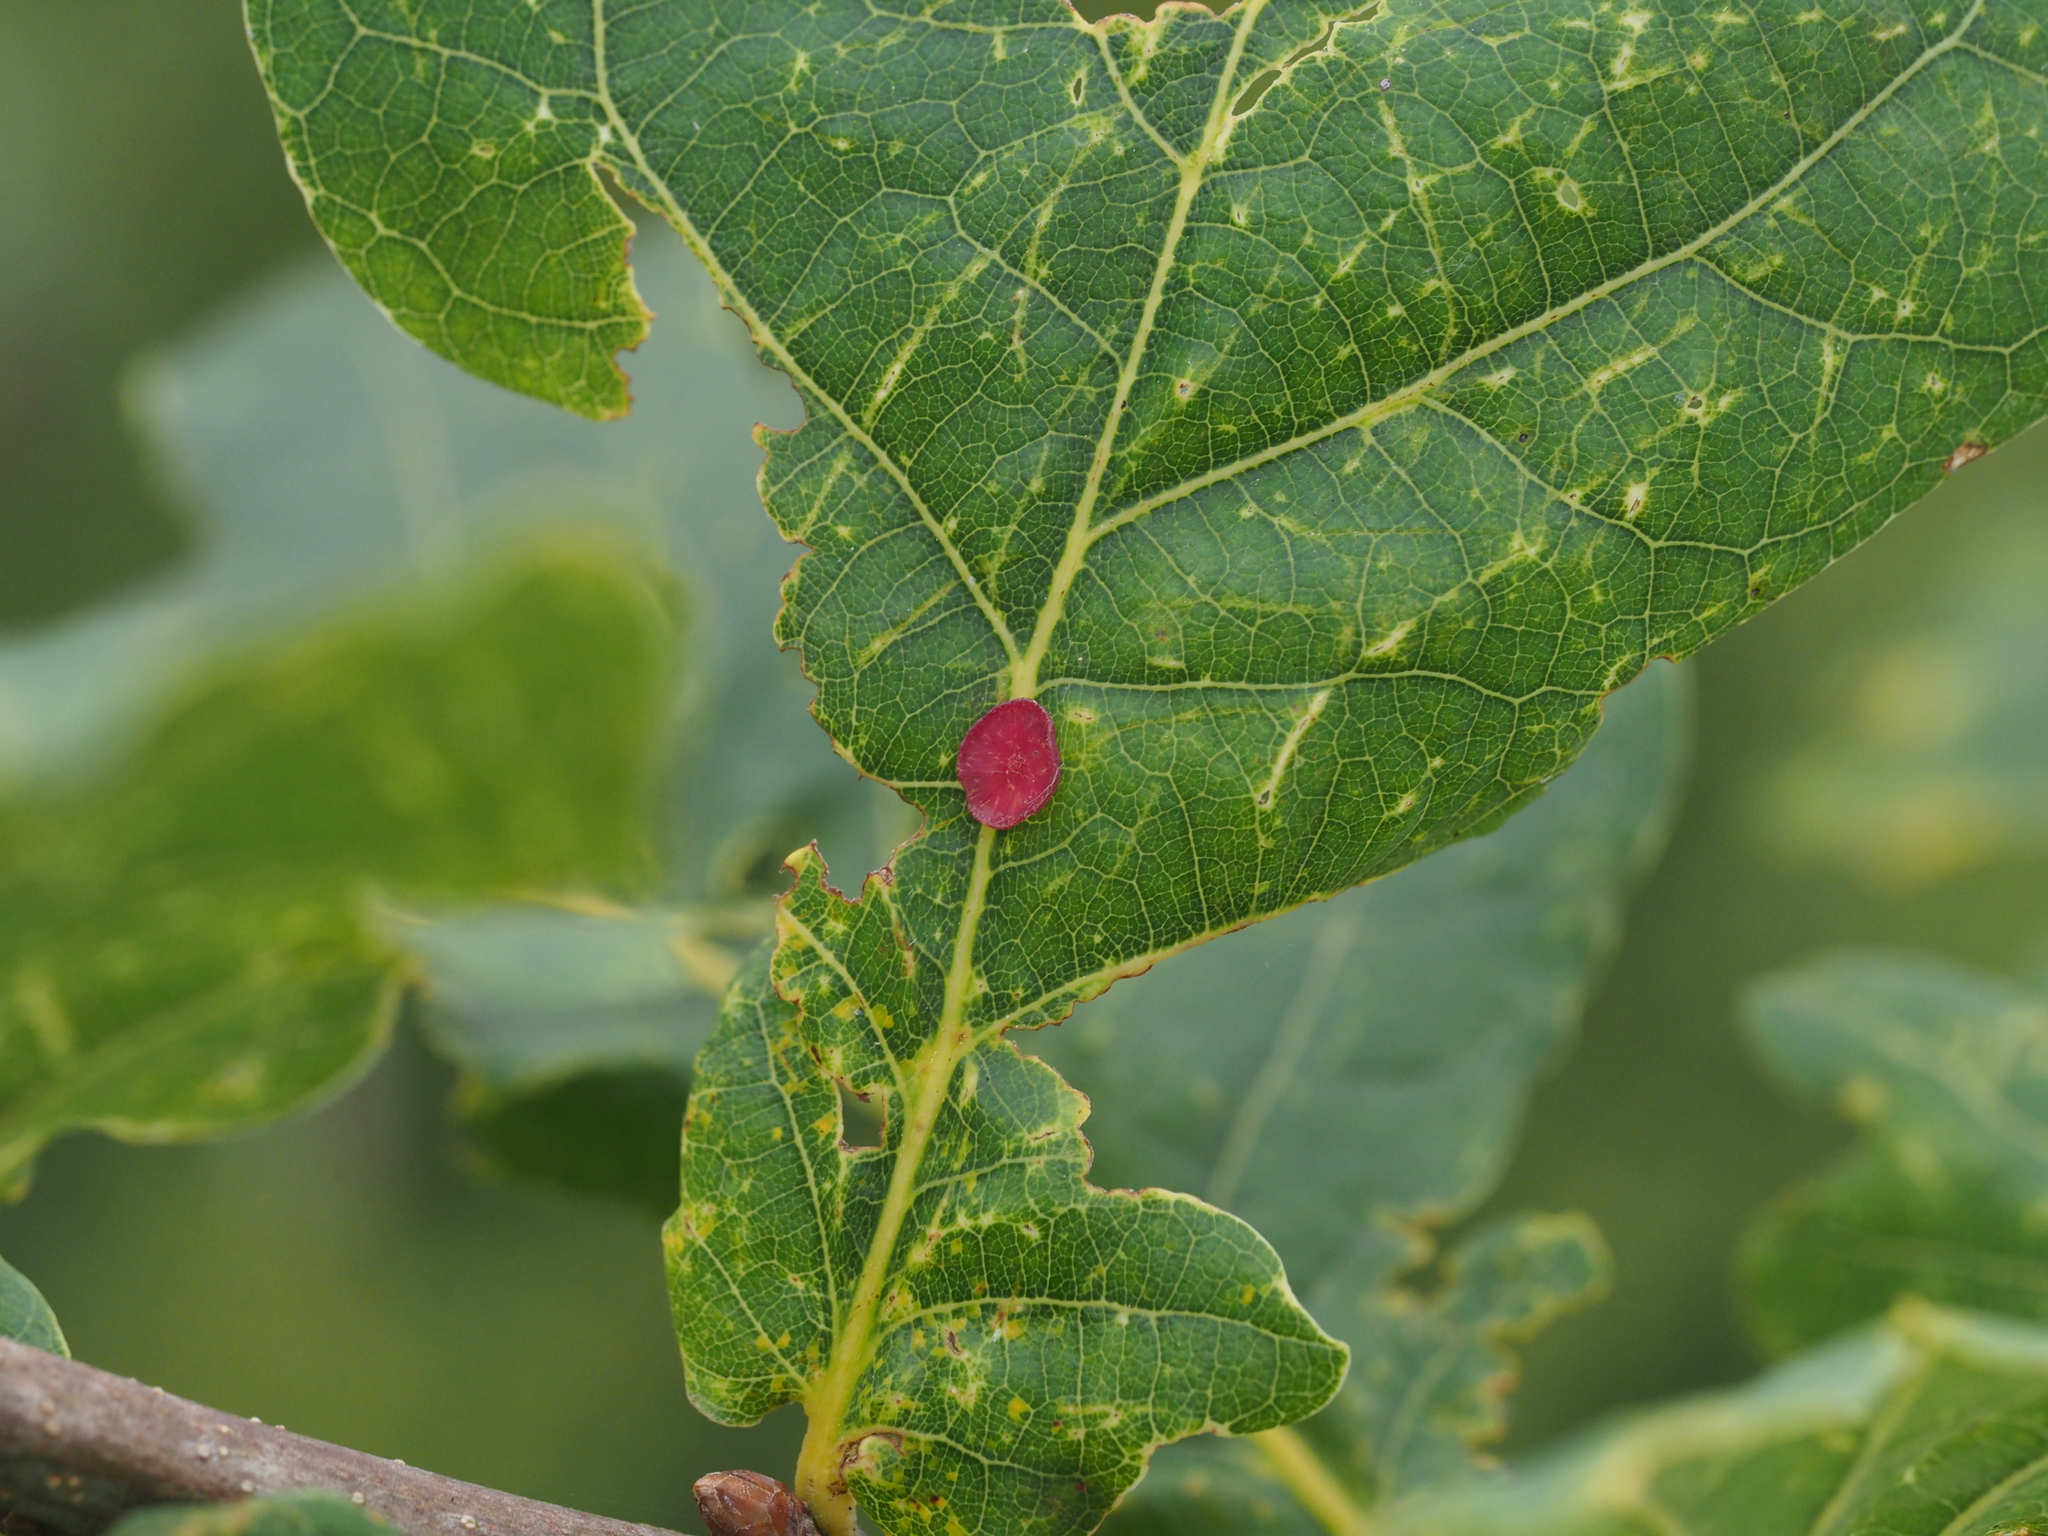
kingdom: Animalia
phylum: Arthropoda
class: Insecta
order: Hymenoptera
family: Cynipidae
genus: Neuroterus
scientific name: Neuroterus albipes
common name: Smooth spangle gall
